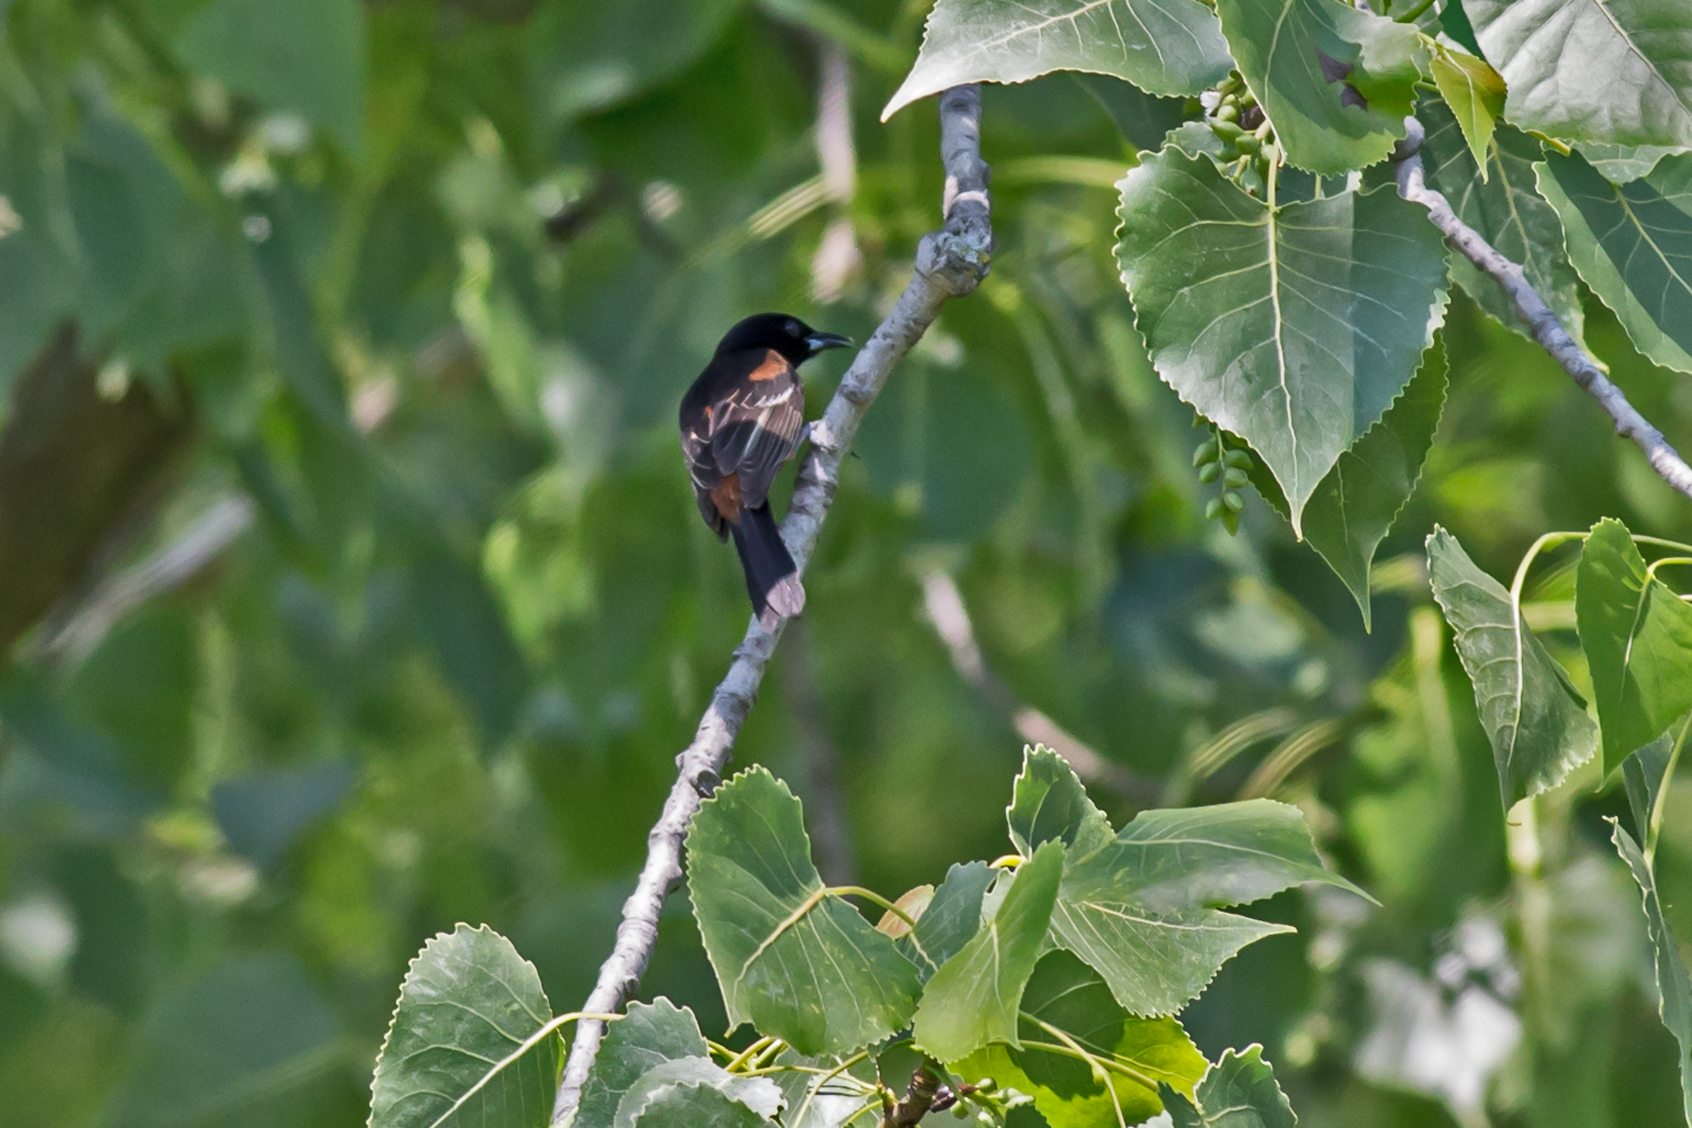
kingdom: Animalia
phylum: Chordata
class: Aves
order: Passeriformes
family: Icteridae
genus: Icterus
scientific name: Icterus spurius
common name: Orchard oriole
